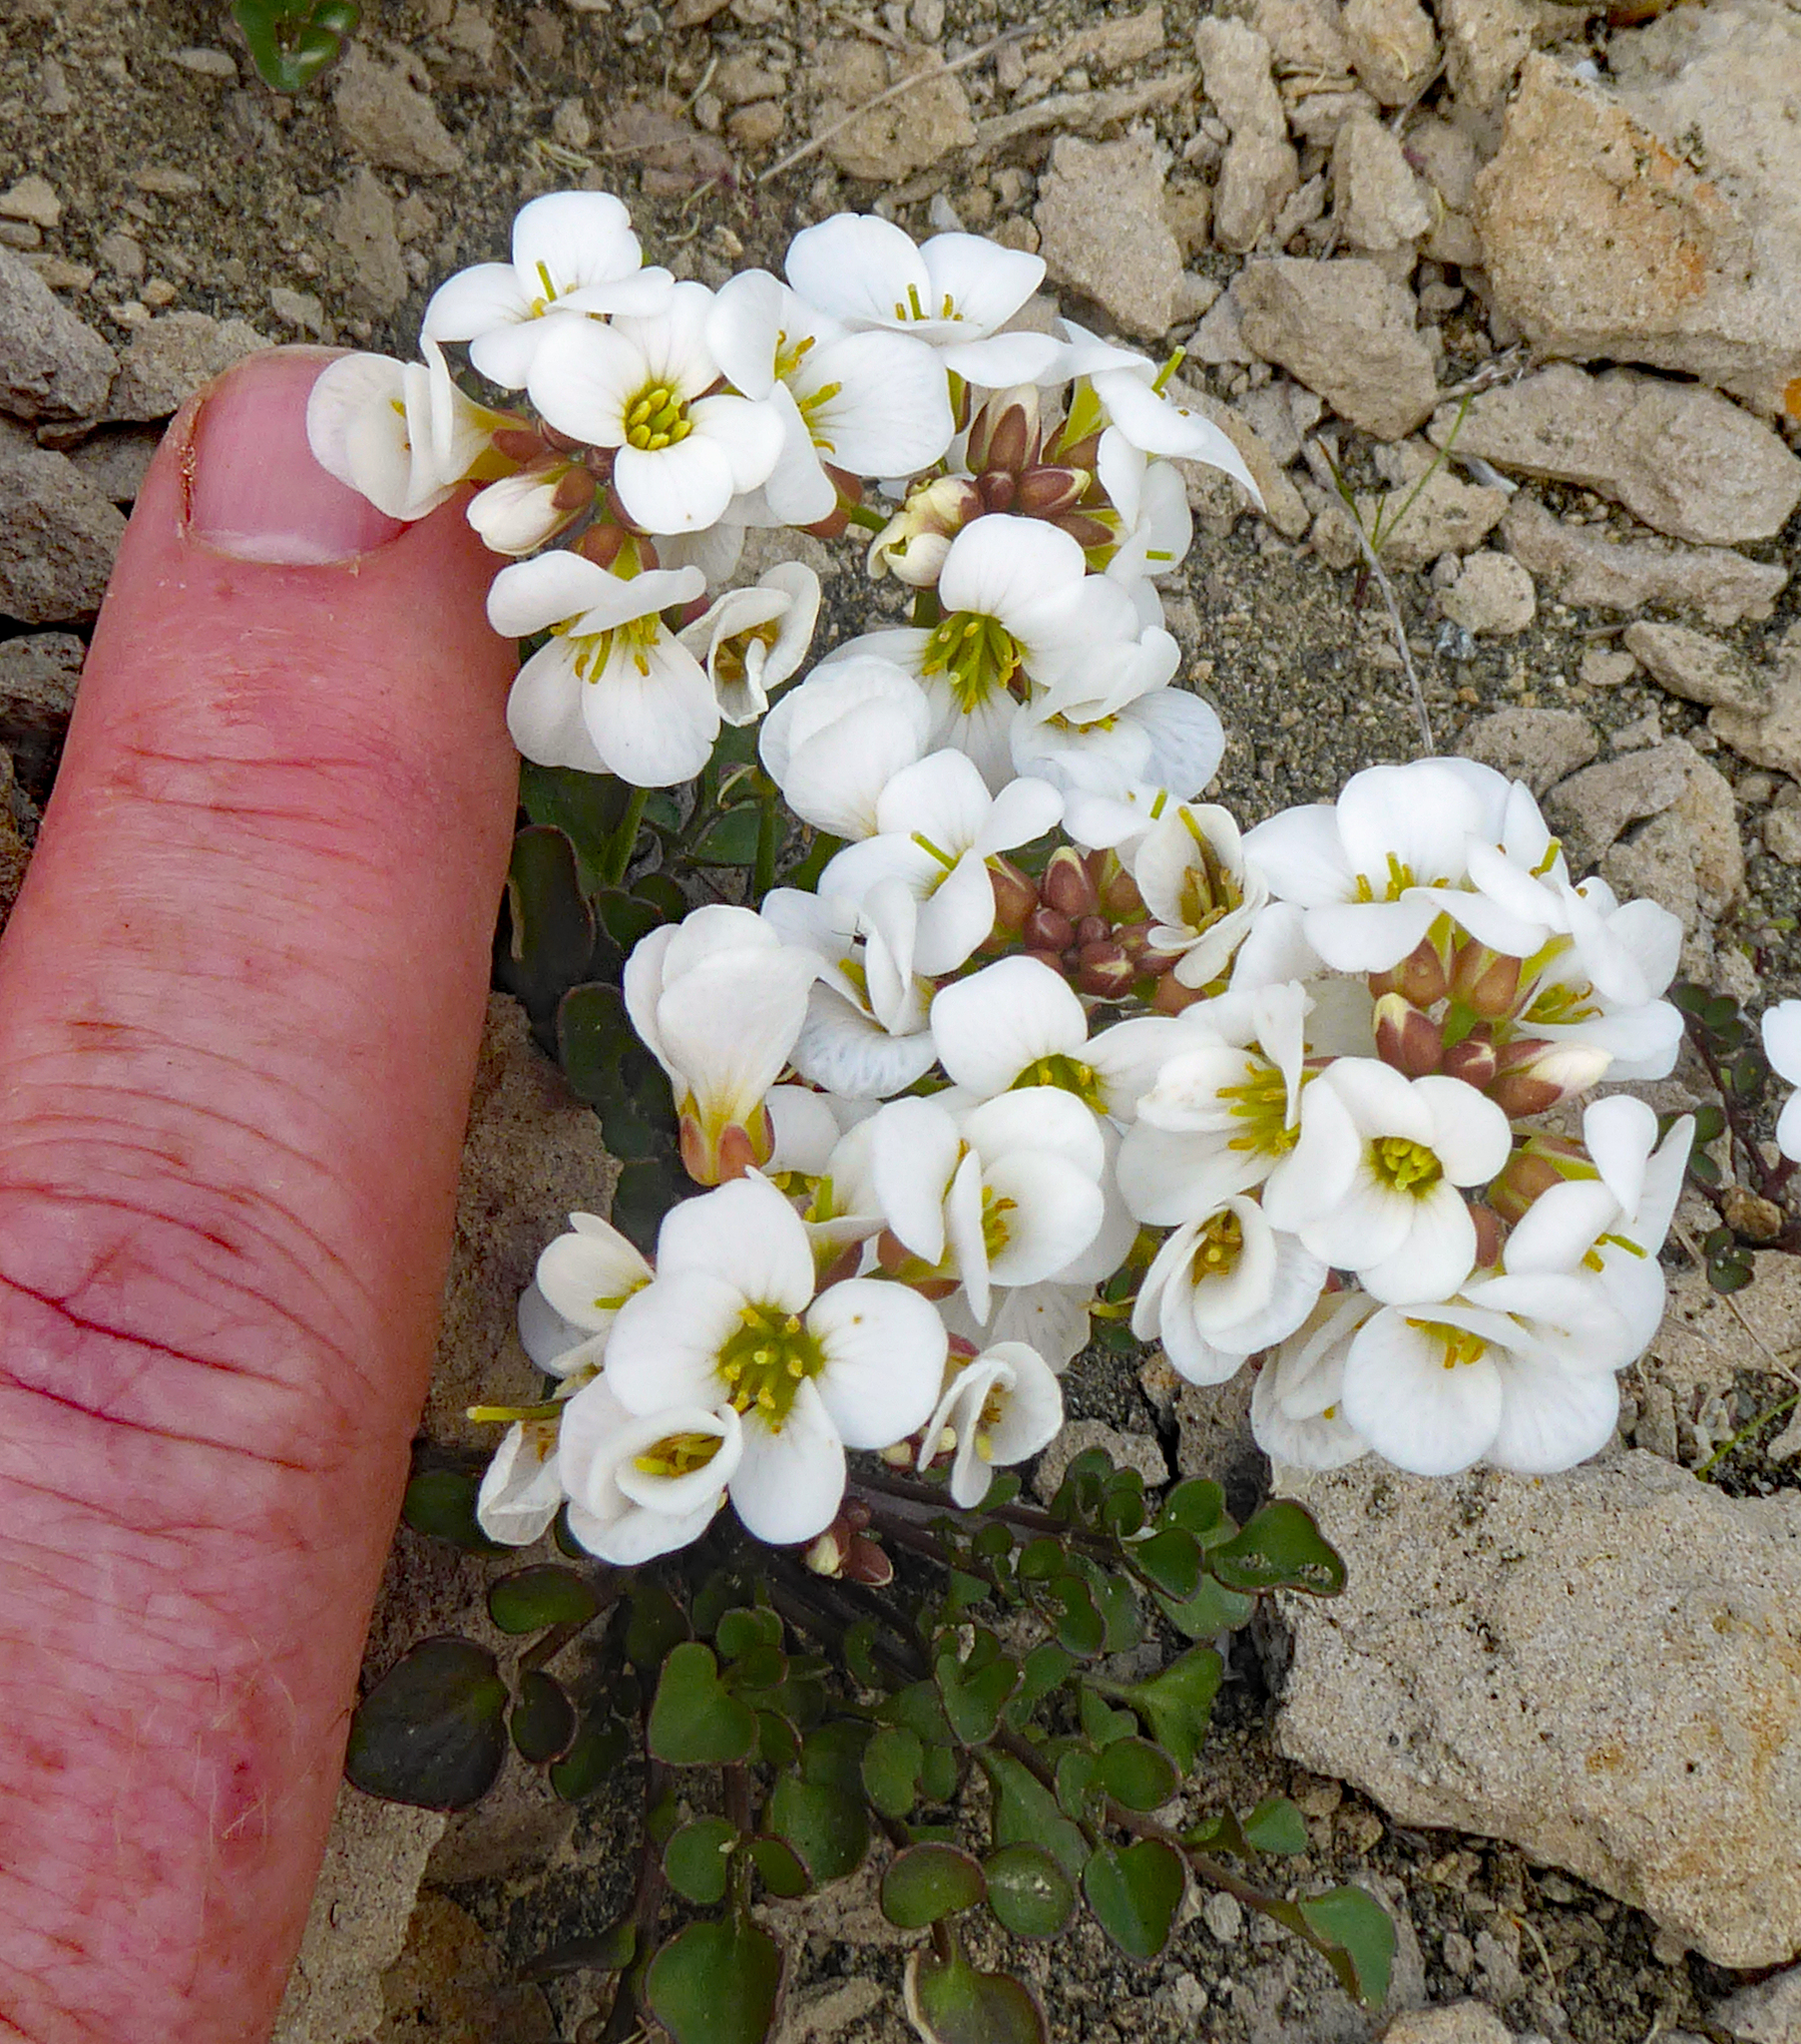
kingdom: Plantae
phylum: Tracheophyta
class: Magnoliopsida
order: Brassicales
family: Brassicaceae
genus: Cardamine
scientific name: Cardamine magnifica
